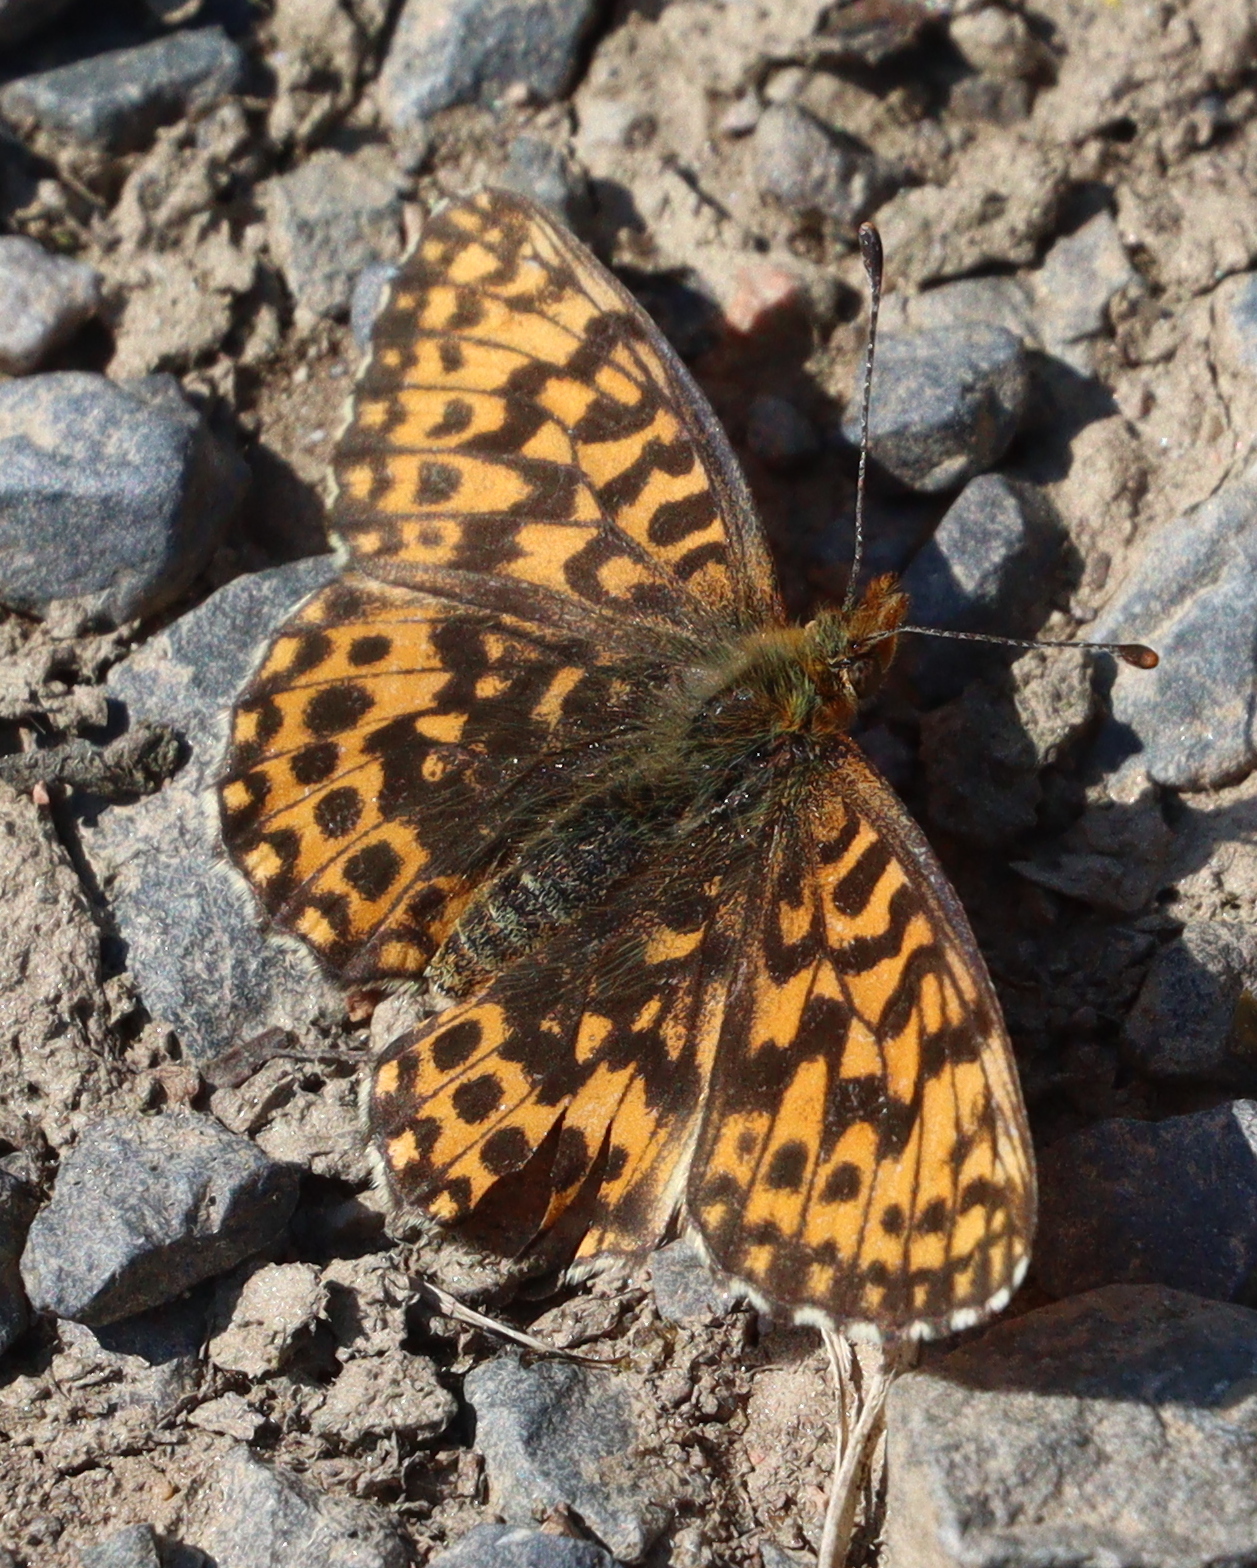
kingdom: Animalia
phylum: Arthropoda
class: Insecta
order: Lepidoptera
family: Nymphalidae
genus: Boloria
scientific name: Boloria dia
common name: Weaver's fritillary
